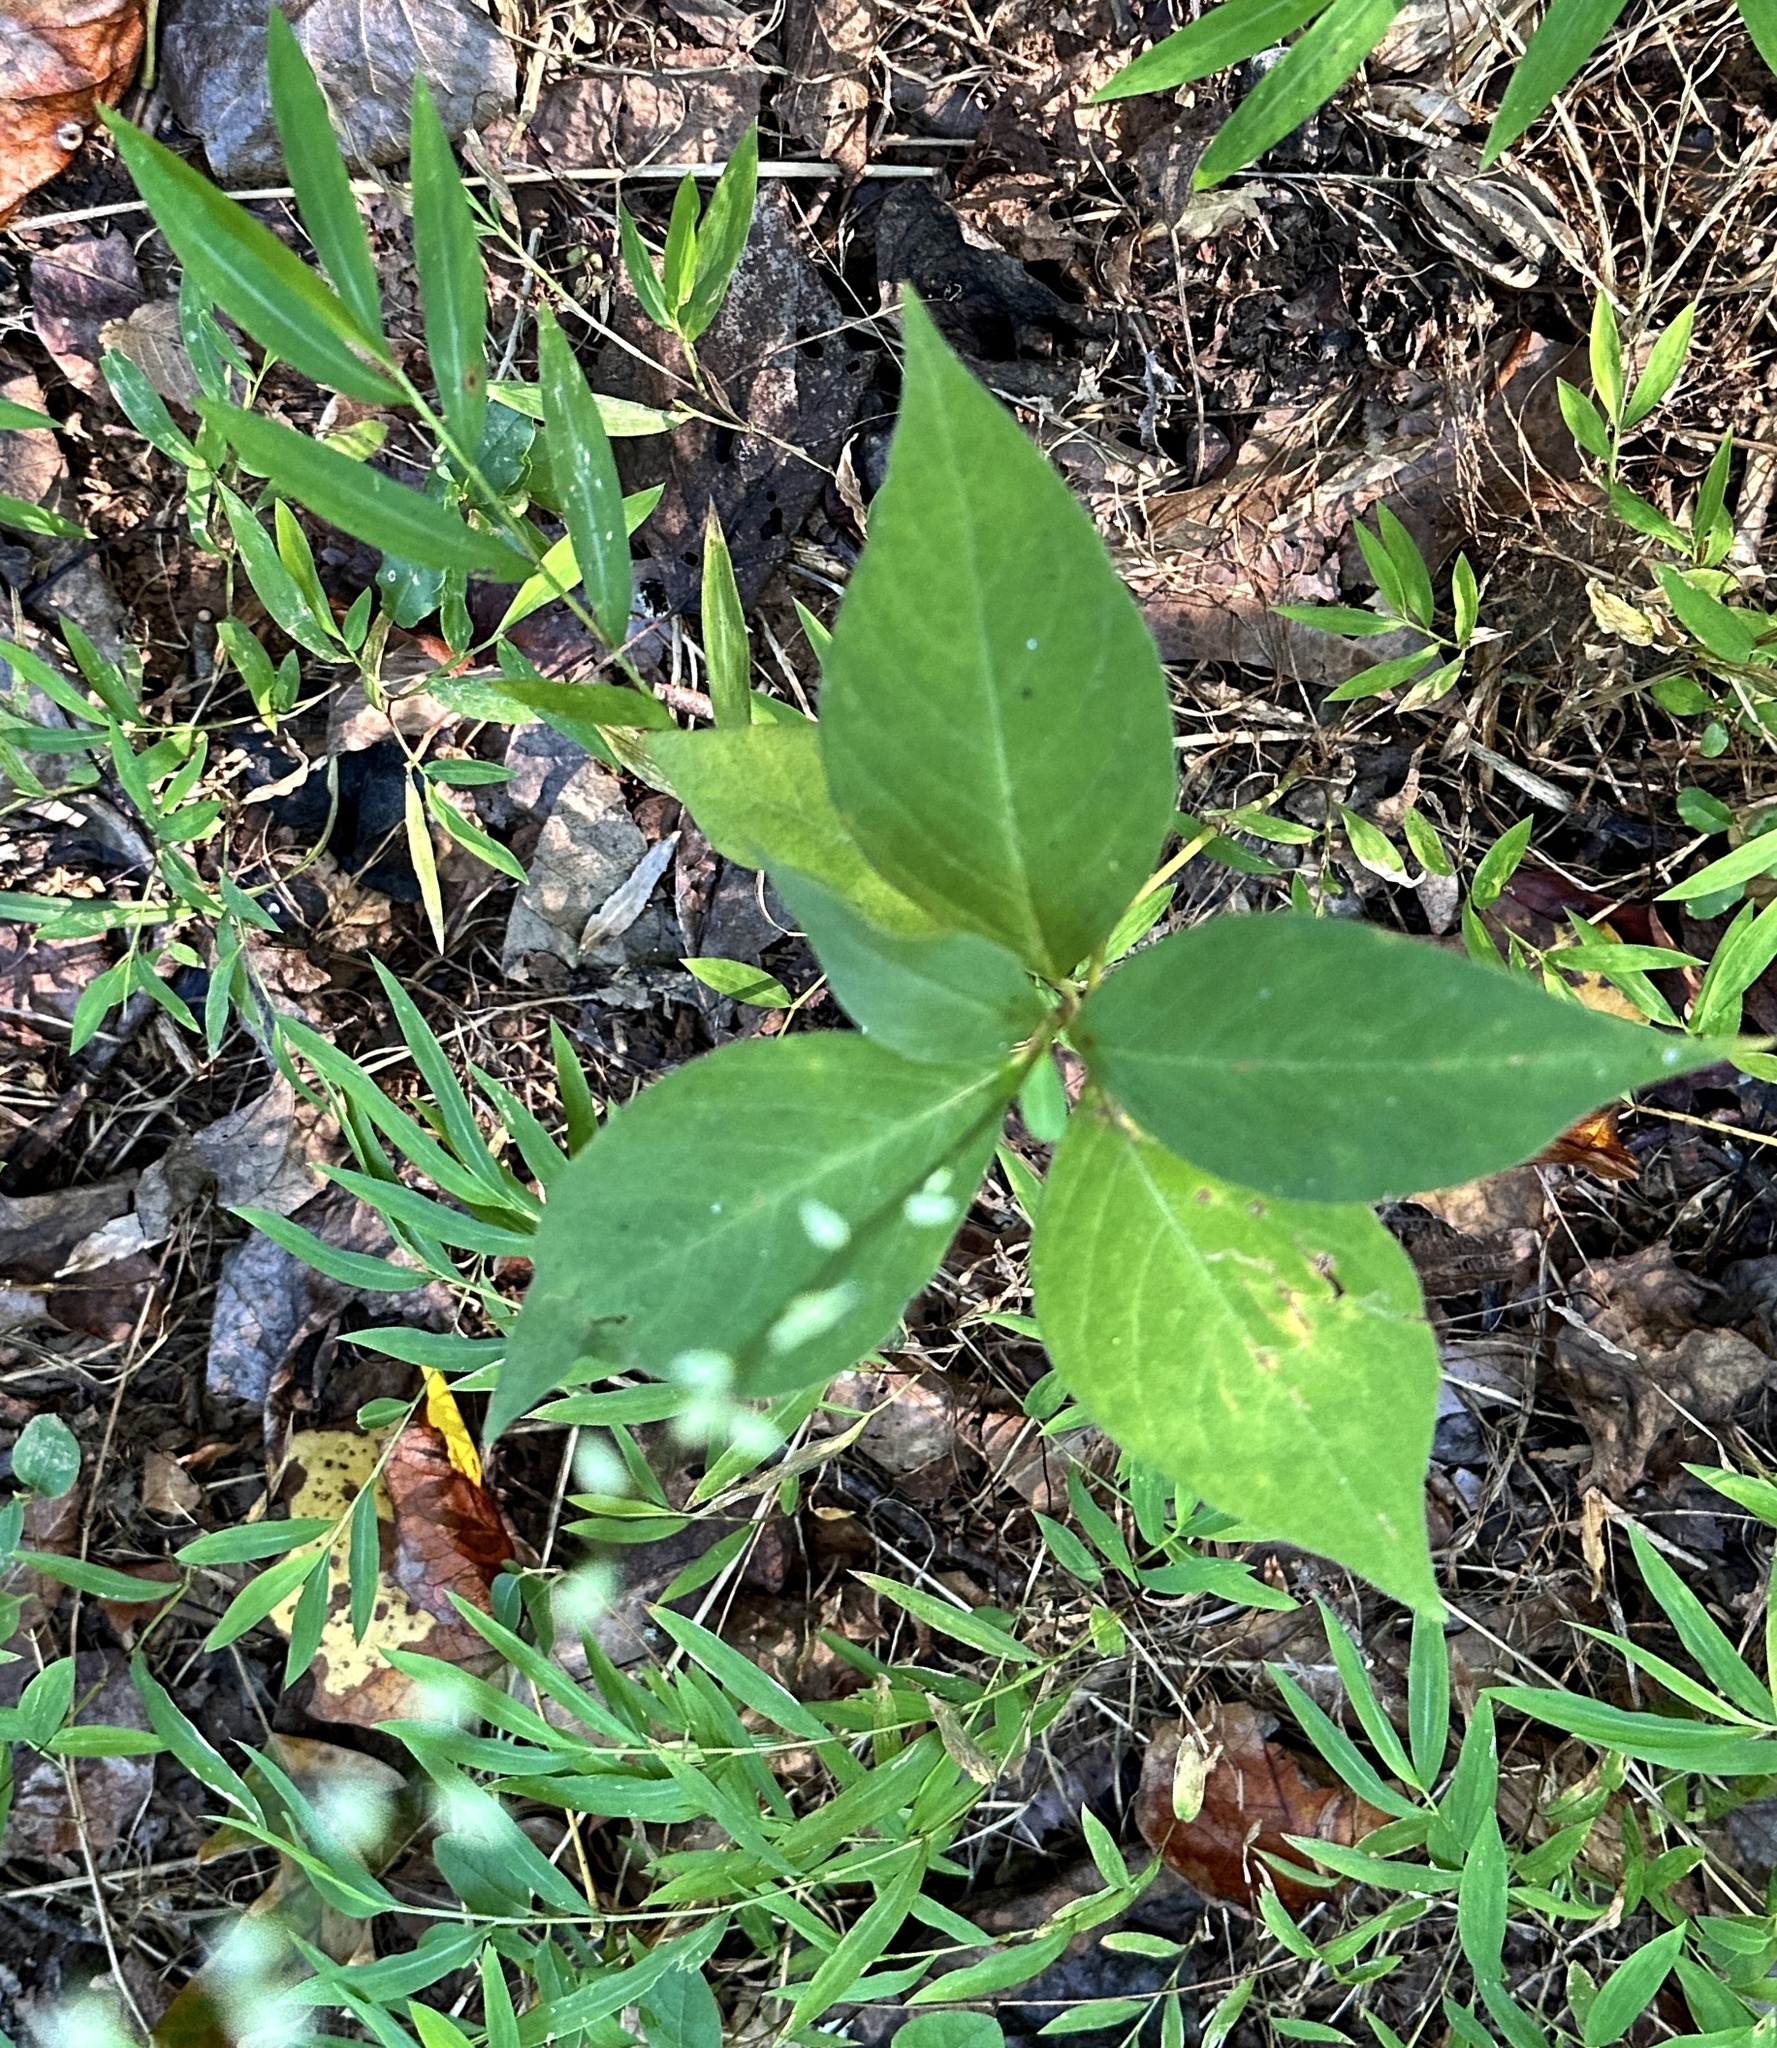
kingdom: Plantae
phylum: Tracheophyta
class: Magnoliopsida
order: Caryophyllales
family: Polygonaceae
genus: Persicaria
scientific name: Persicaria virginiana
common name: Jumpseed
